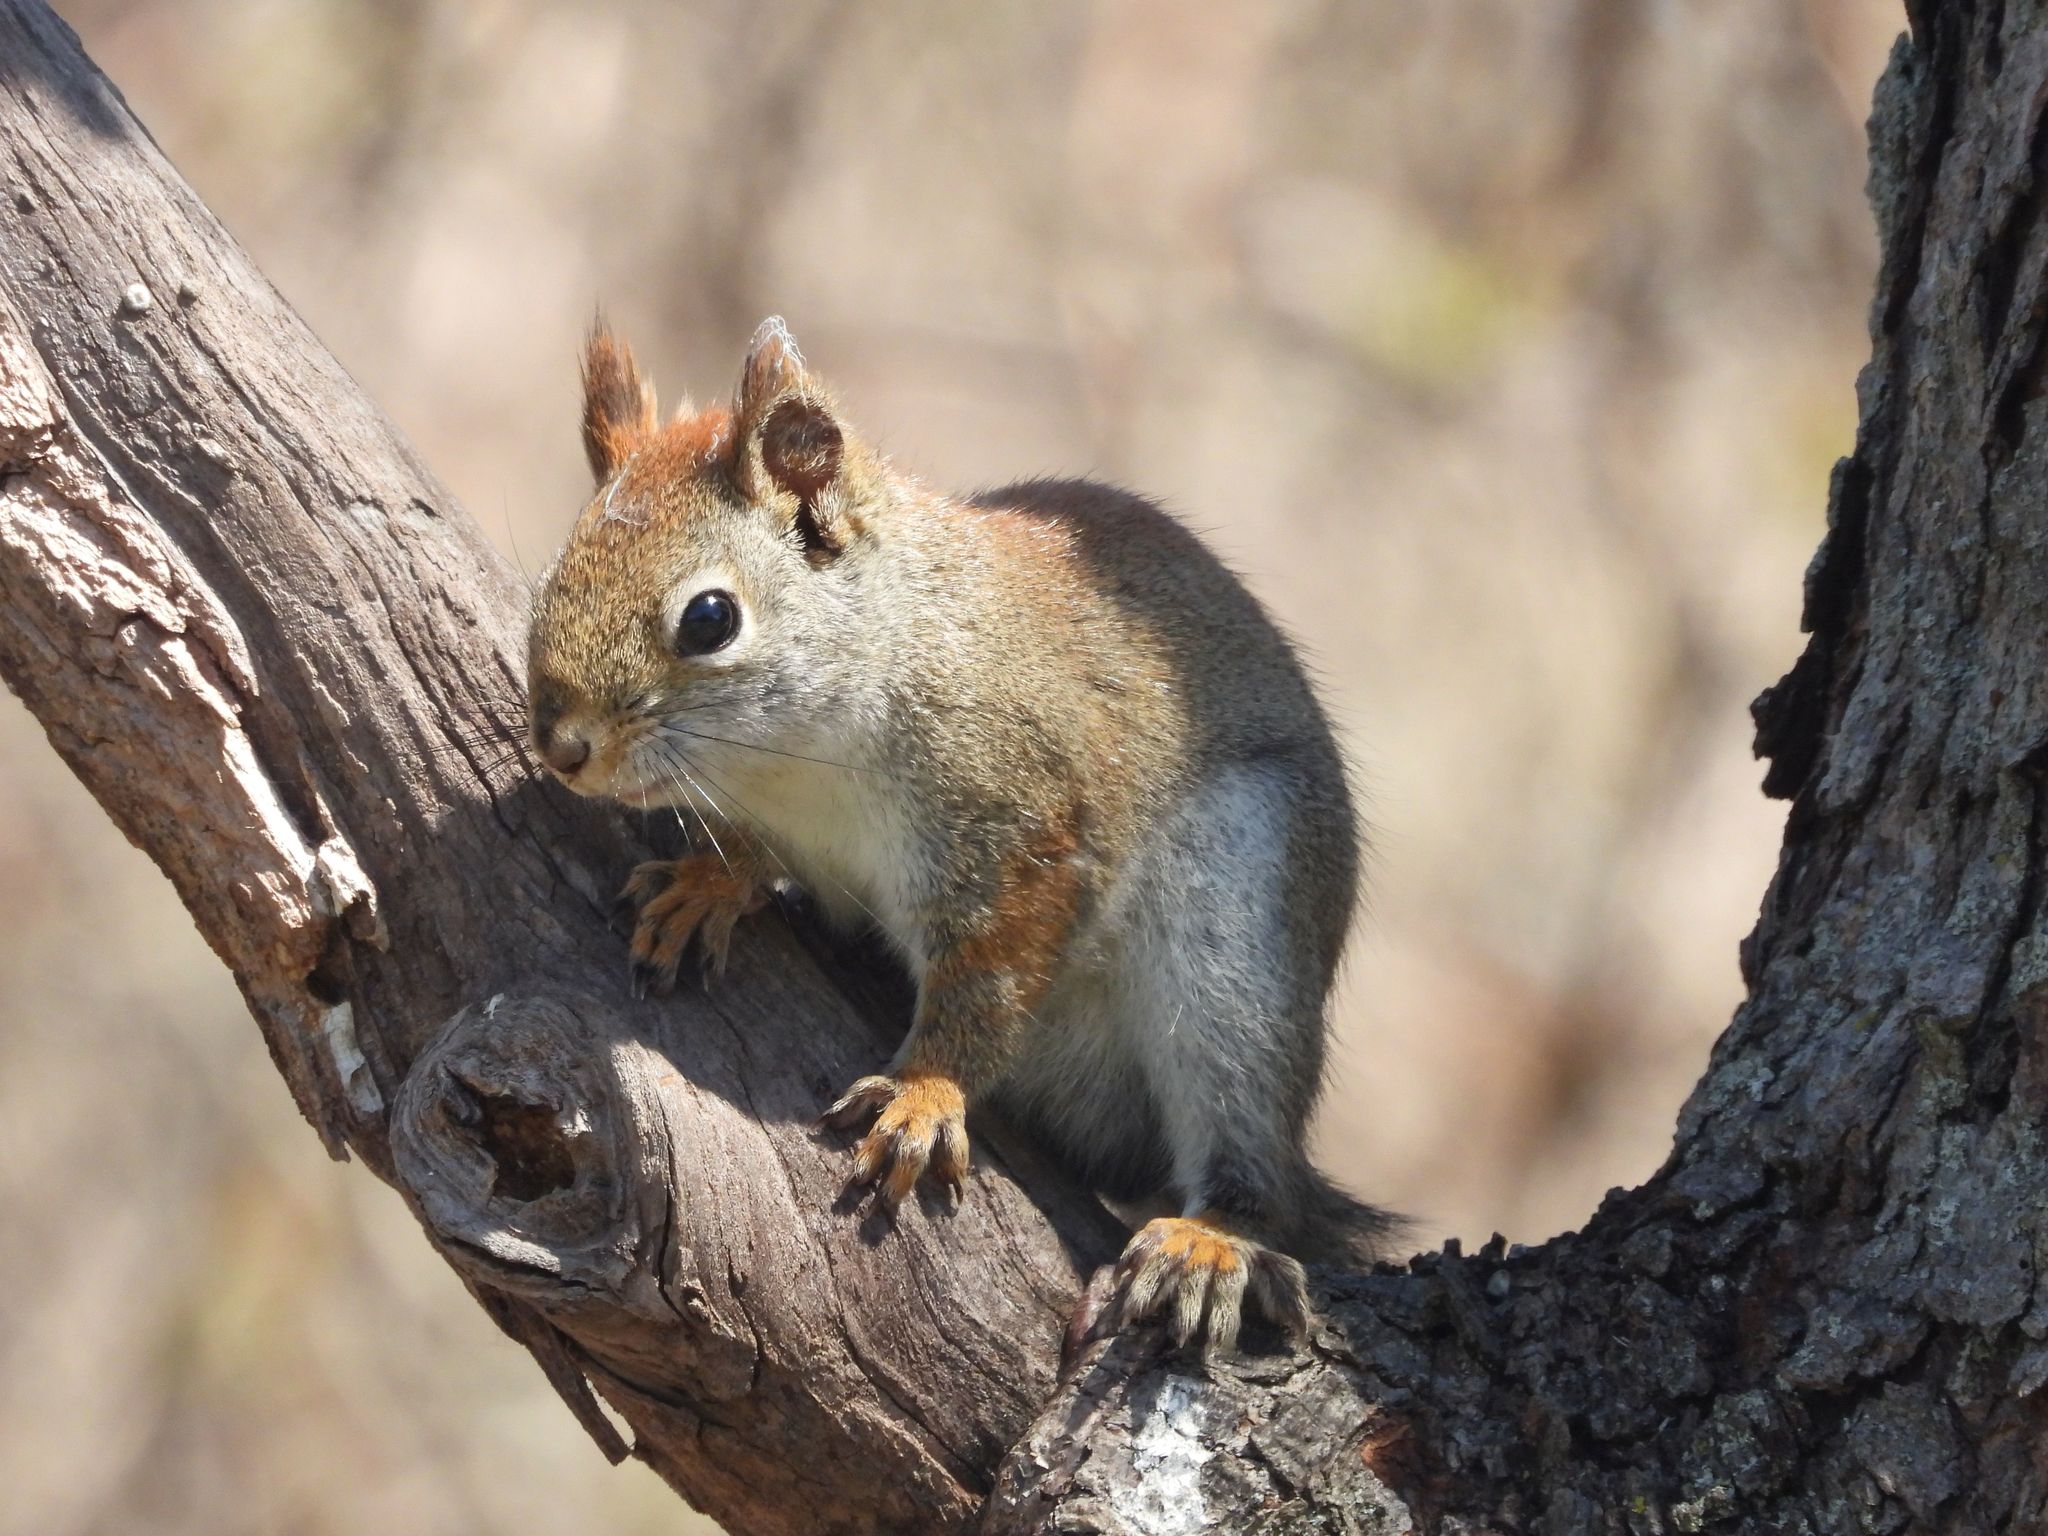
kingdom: Animalia
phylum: Chordata
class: Mammalia
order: Rodentia
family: Sciuridae
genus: Tamiasciurus
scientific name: Tamiasciurus hudsonicus
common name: Red squirrel
